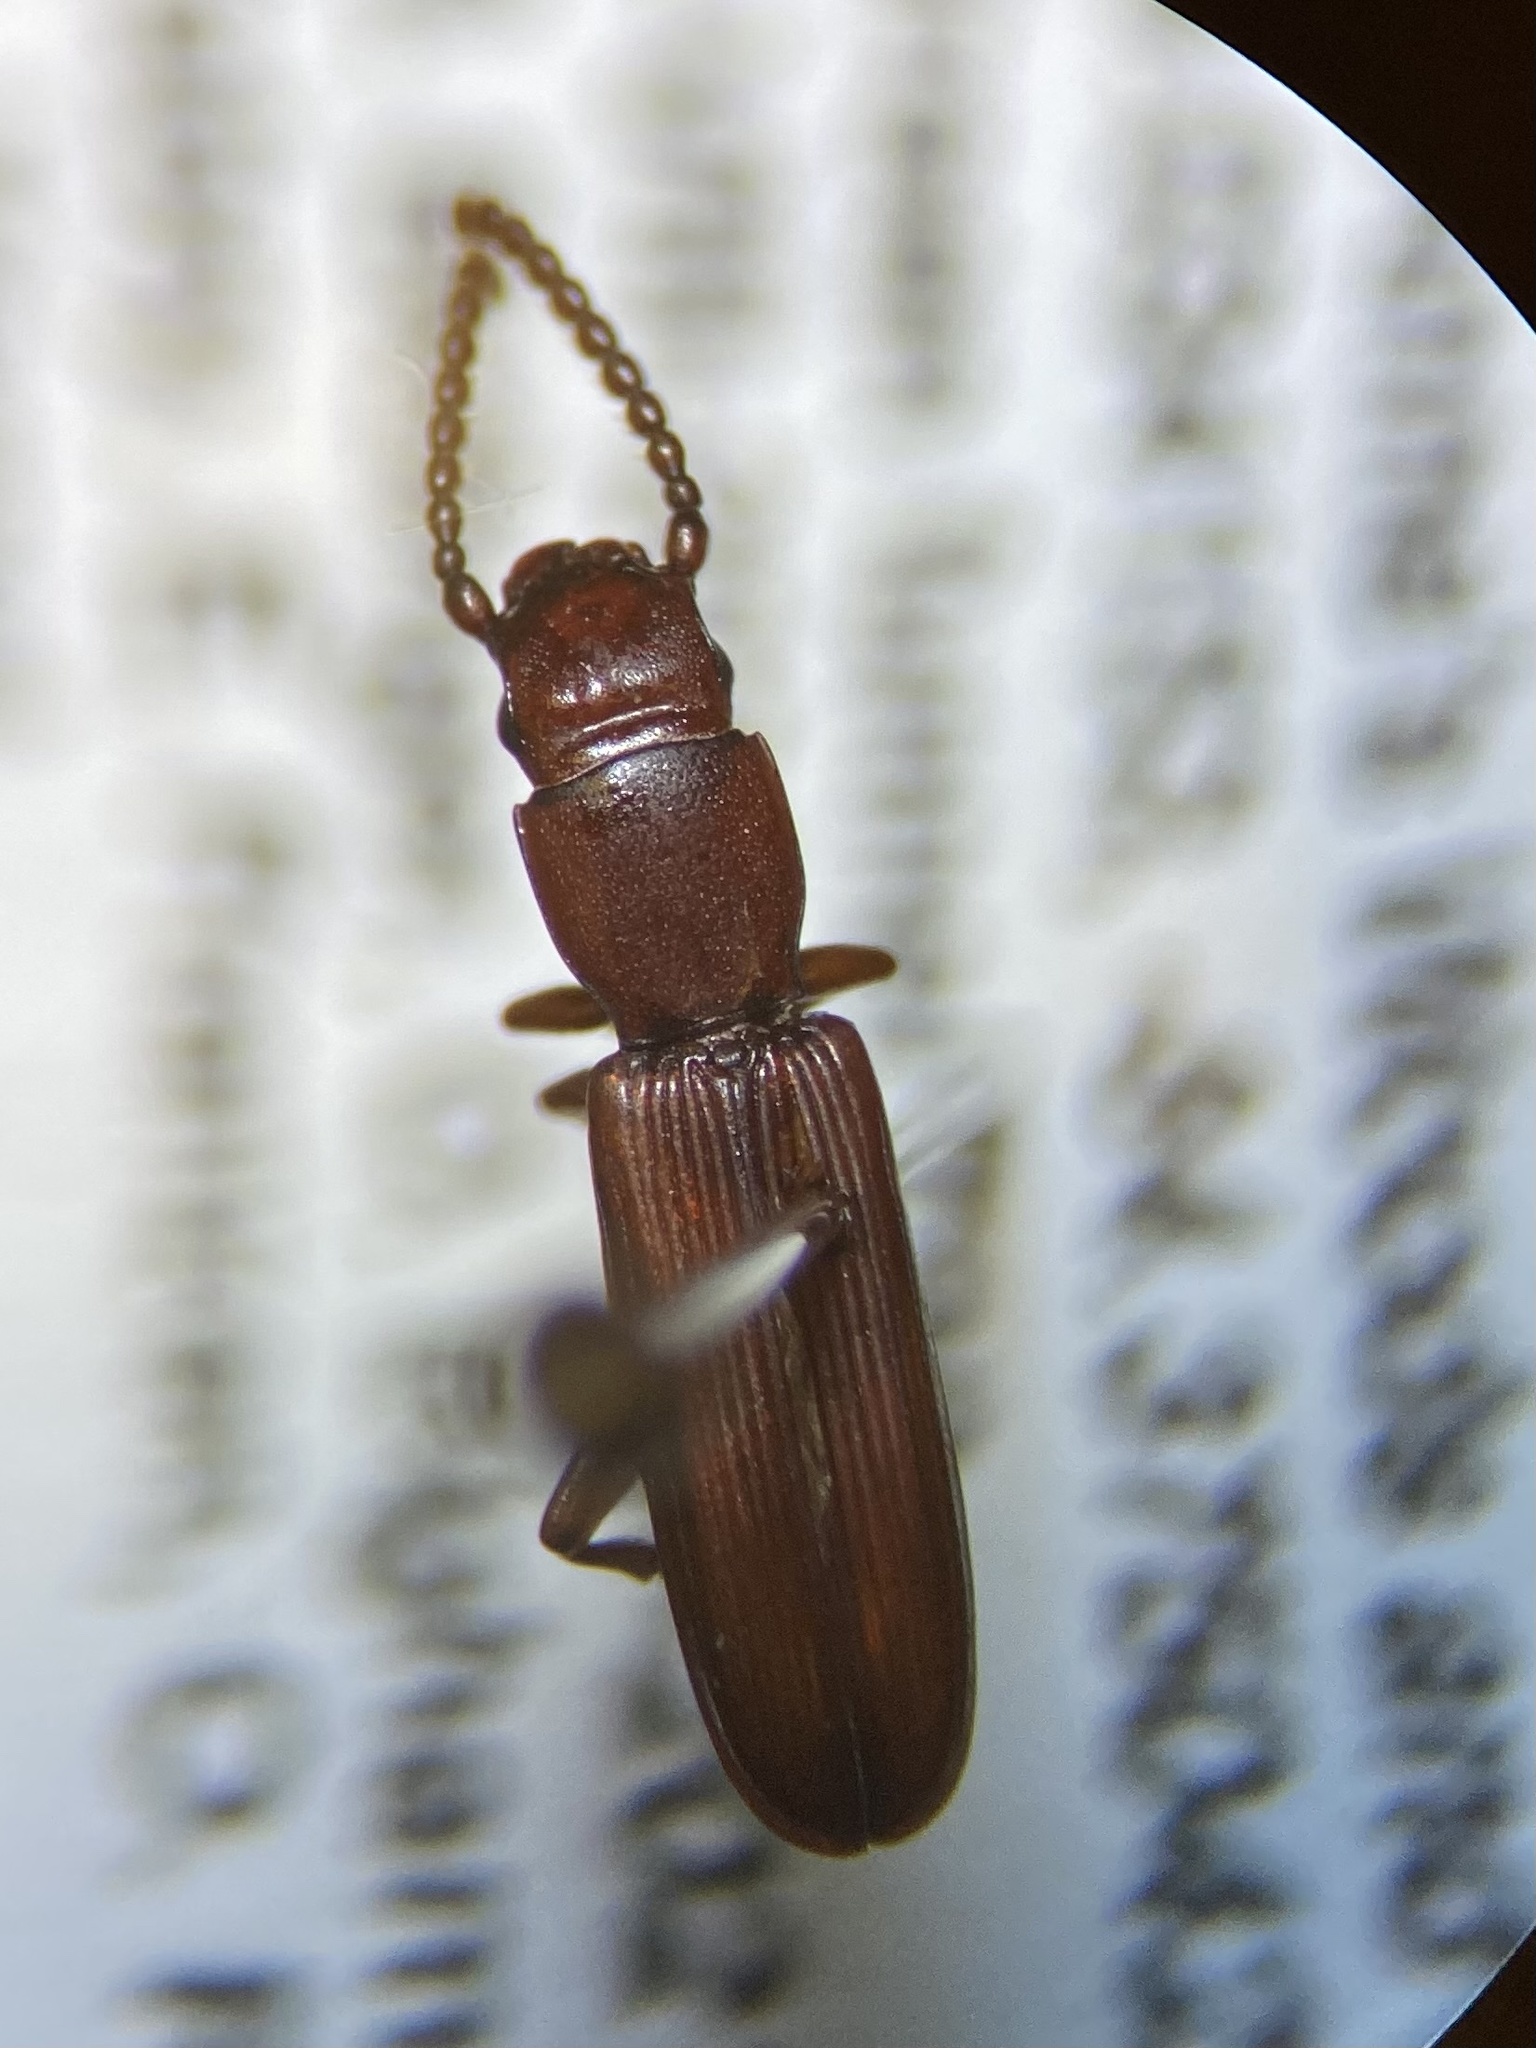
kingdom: Animalia
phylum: Arthropoda
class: Insecta
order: Coleoptera
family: Passandridae
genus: Catogenus
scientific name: Catogenus rufus
